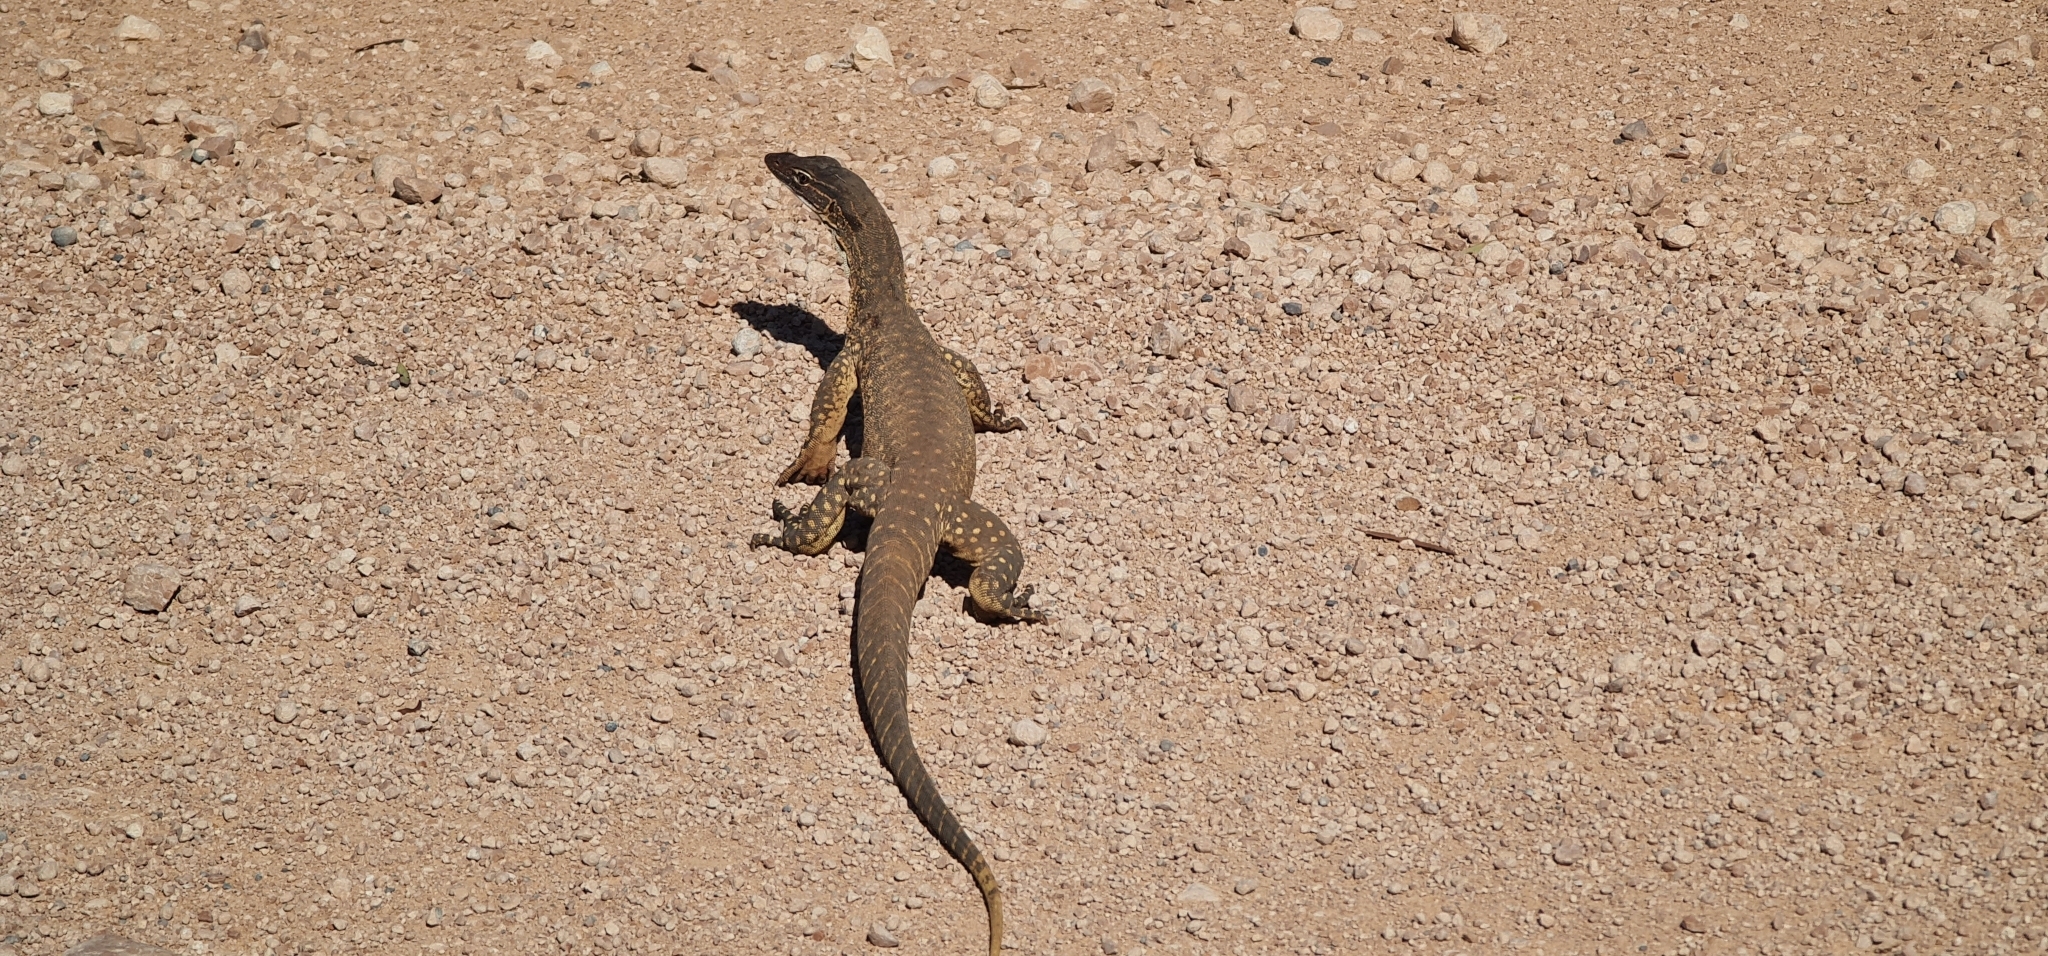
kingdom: Animalia
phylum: Chordata
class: Squamata
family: Varanidae
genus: Varanus
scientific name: Varanus gouldii
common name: Gould's goanna
